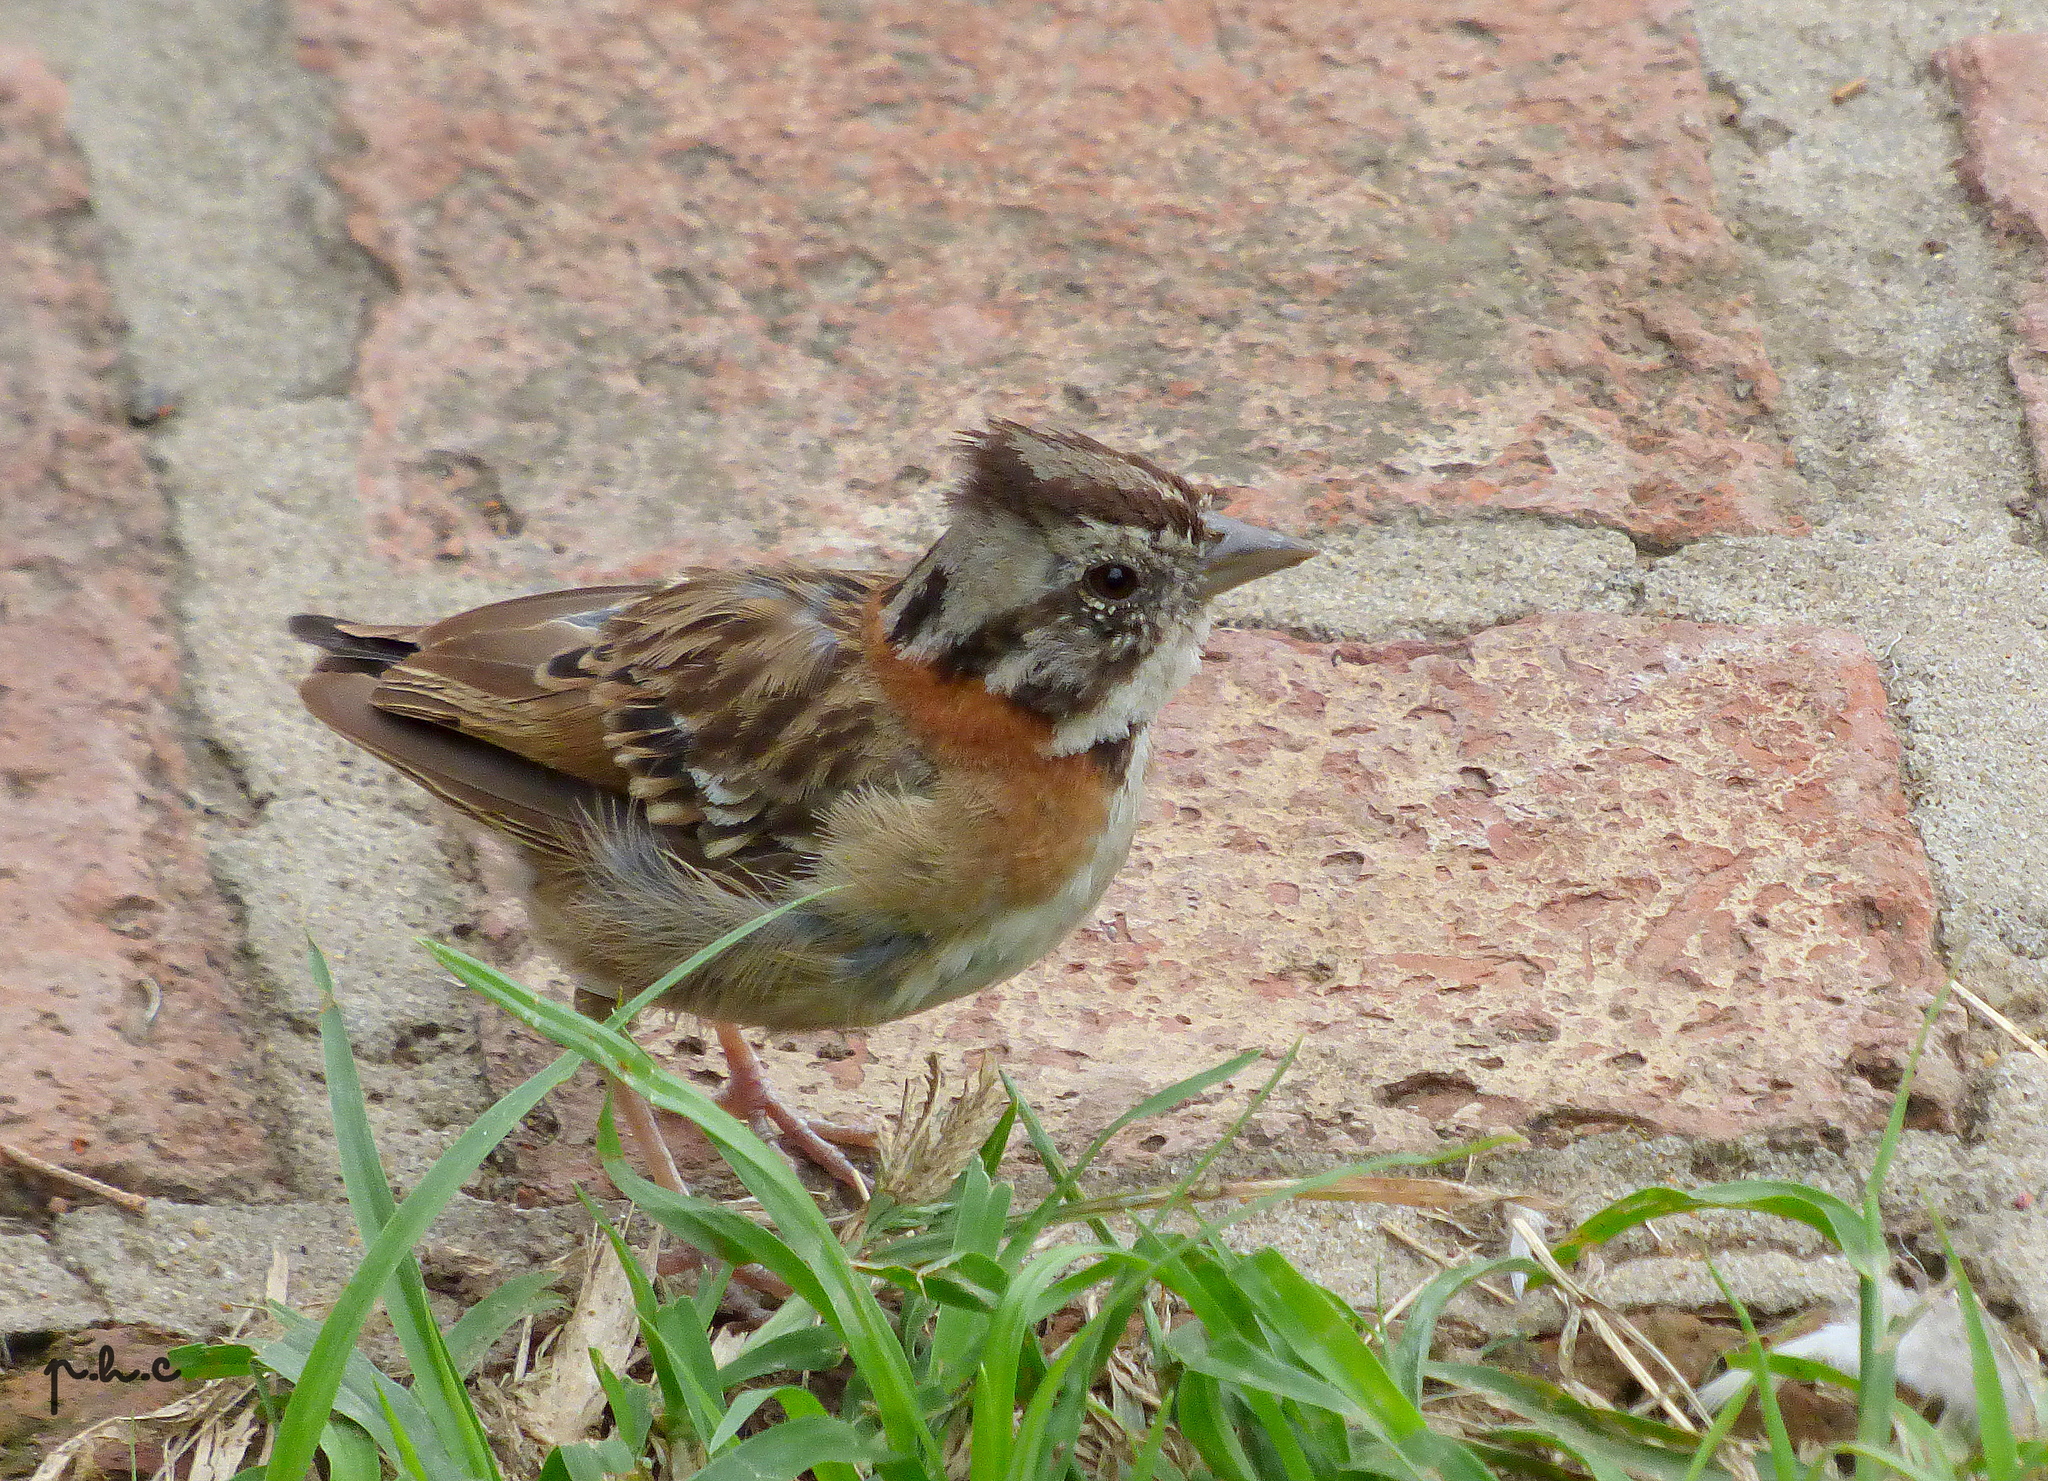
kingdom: Animalia
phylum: Chordata
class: Aves
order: Passeriformes
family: Passerellidae
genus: Zonotrichia
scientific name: Zonotrichia capensis
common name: Rufous-collared sparrow
